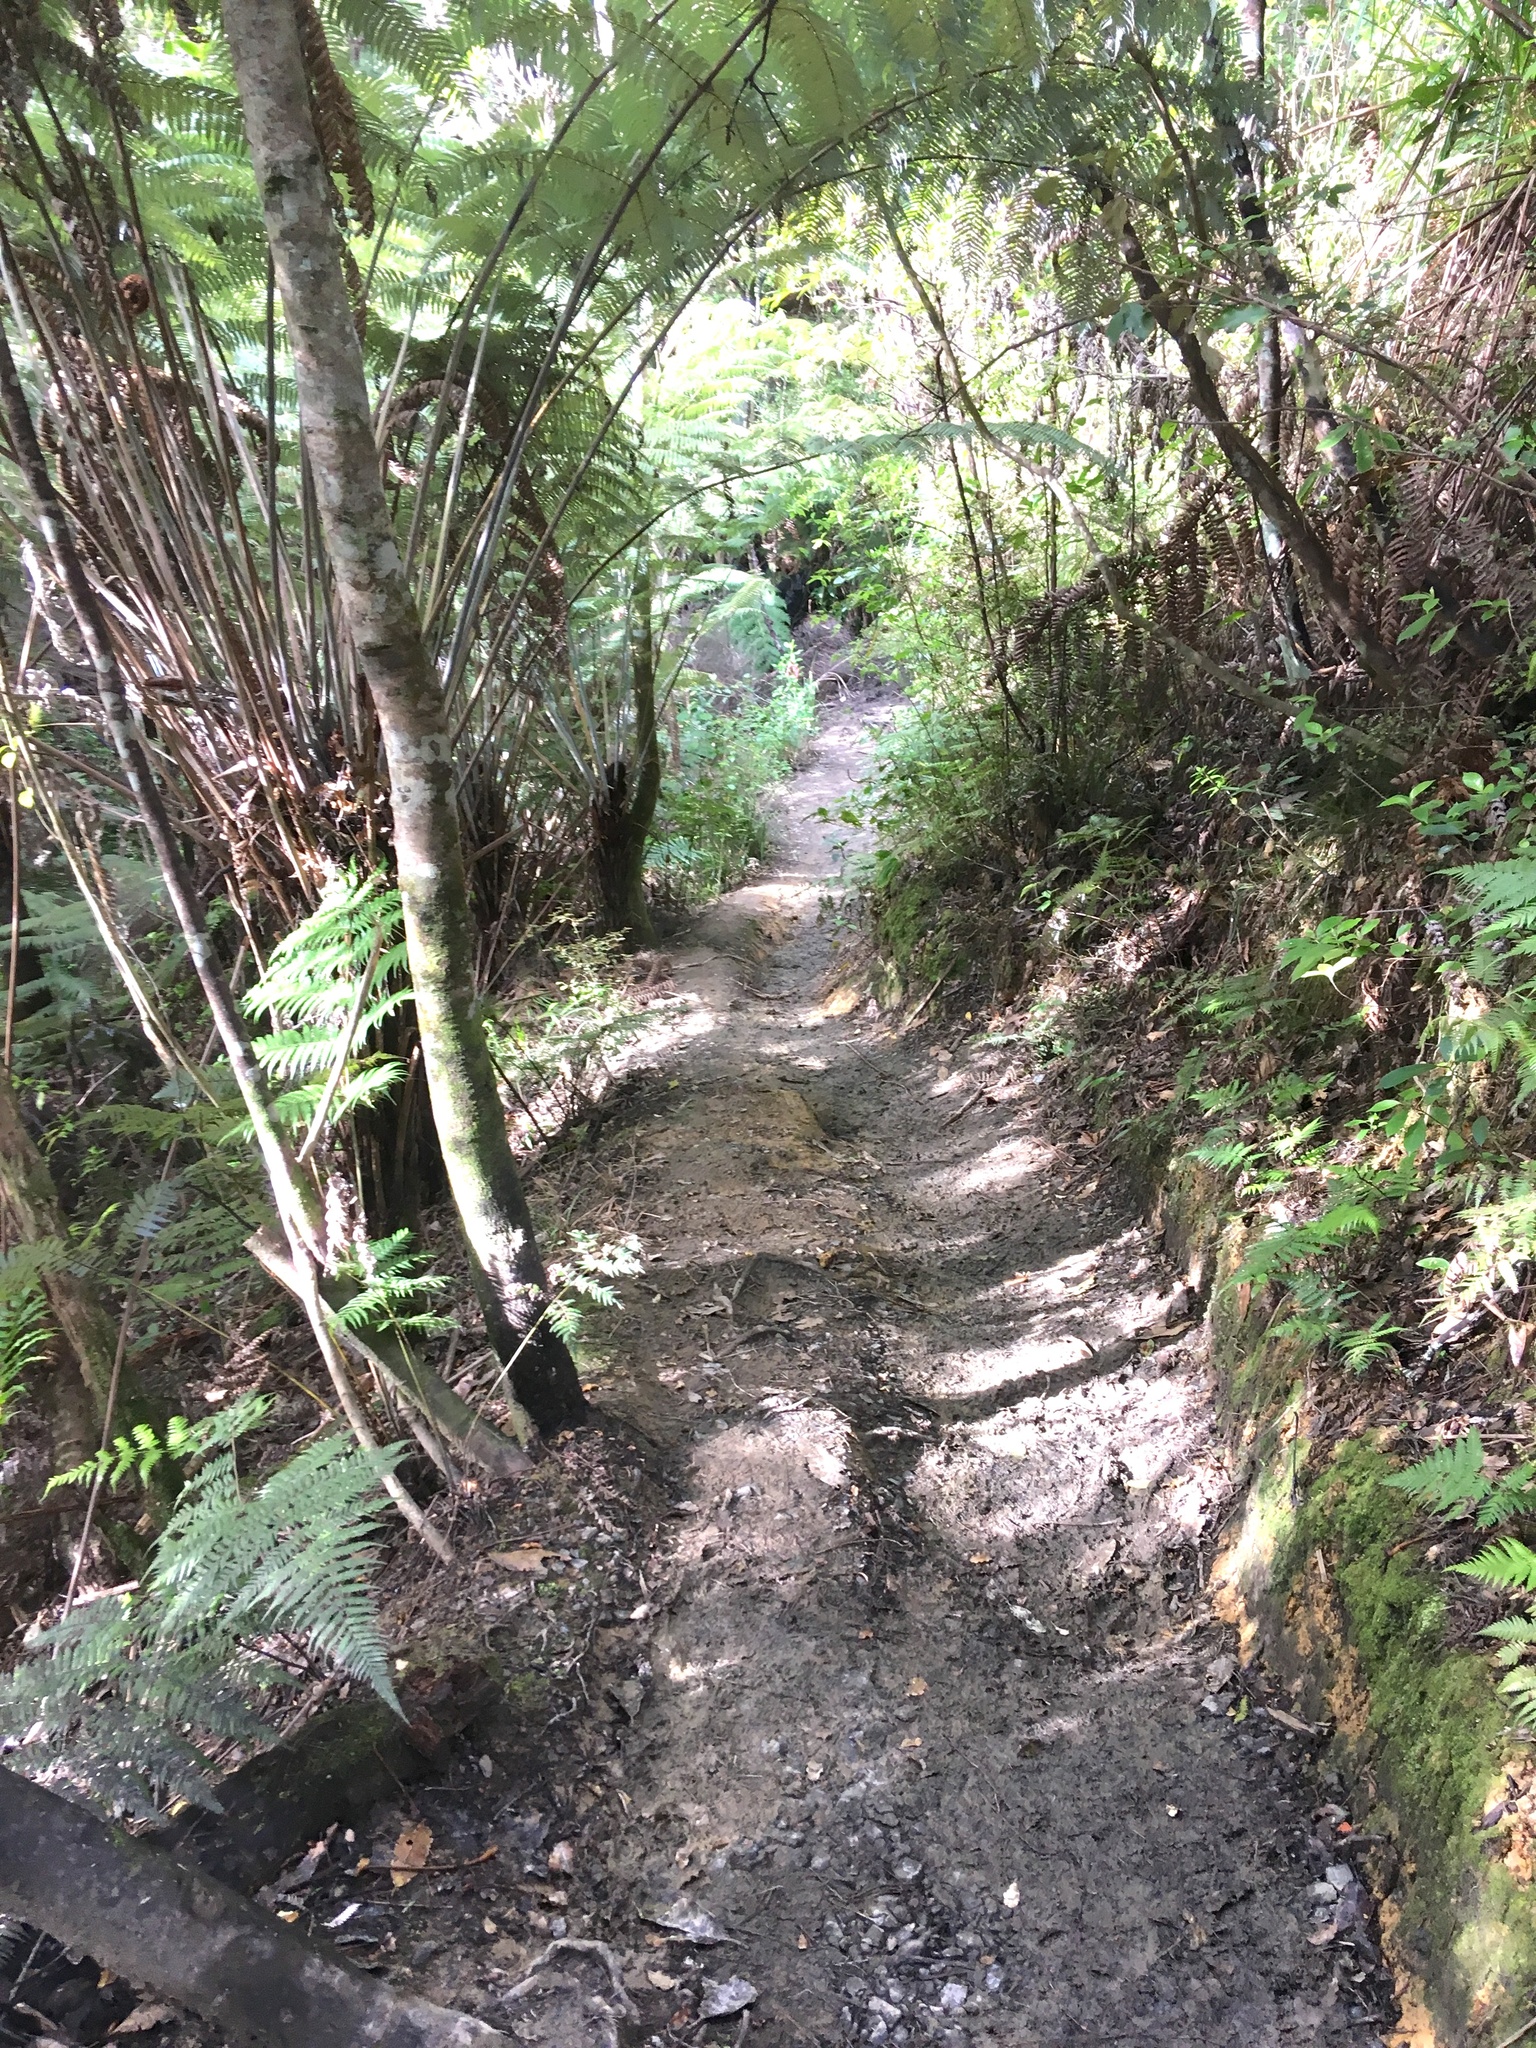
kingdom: Plantae
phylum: Tracheophyta
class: Polypodiopsida
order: Cyatheales
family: Cyatheaceae
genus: Alsophila
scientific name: Alsophila dealbata
